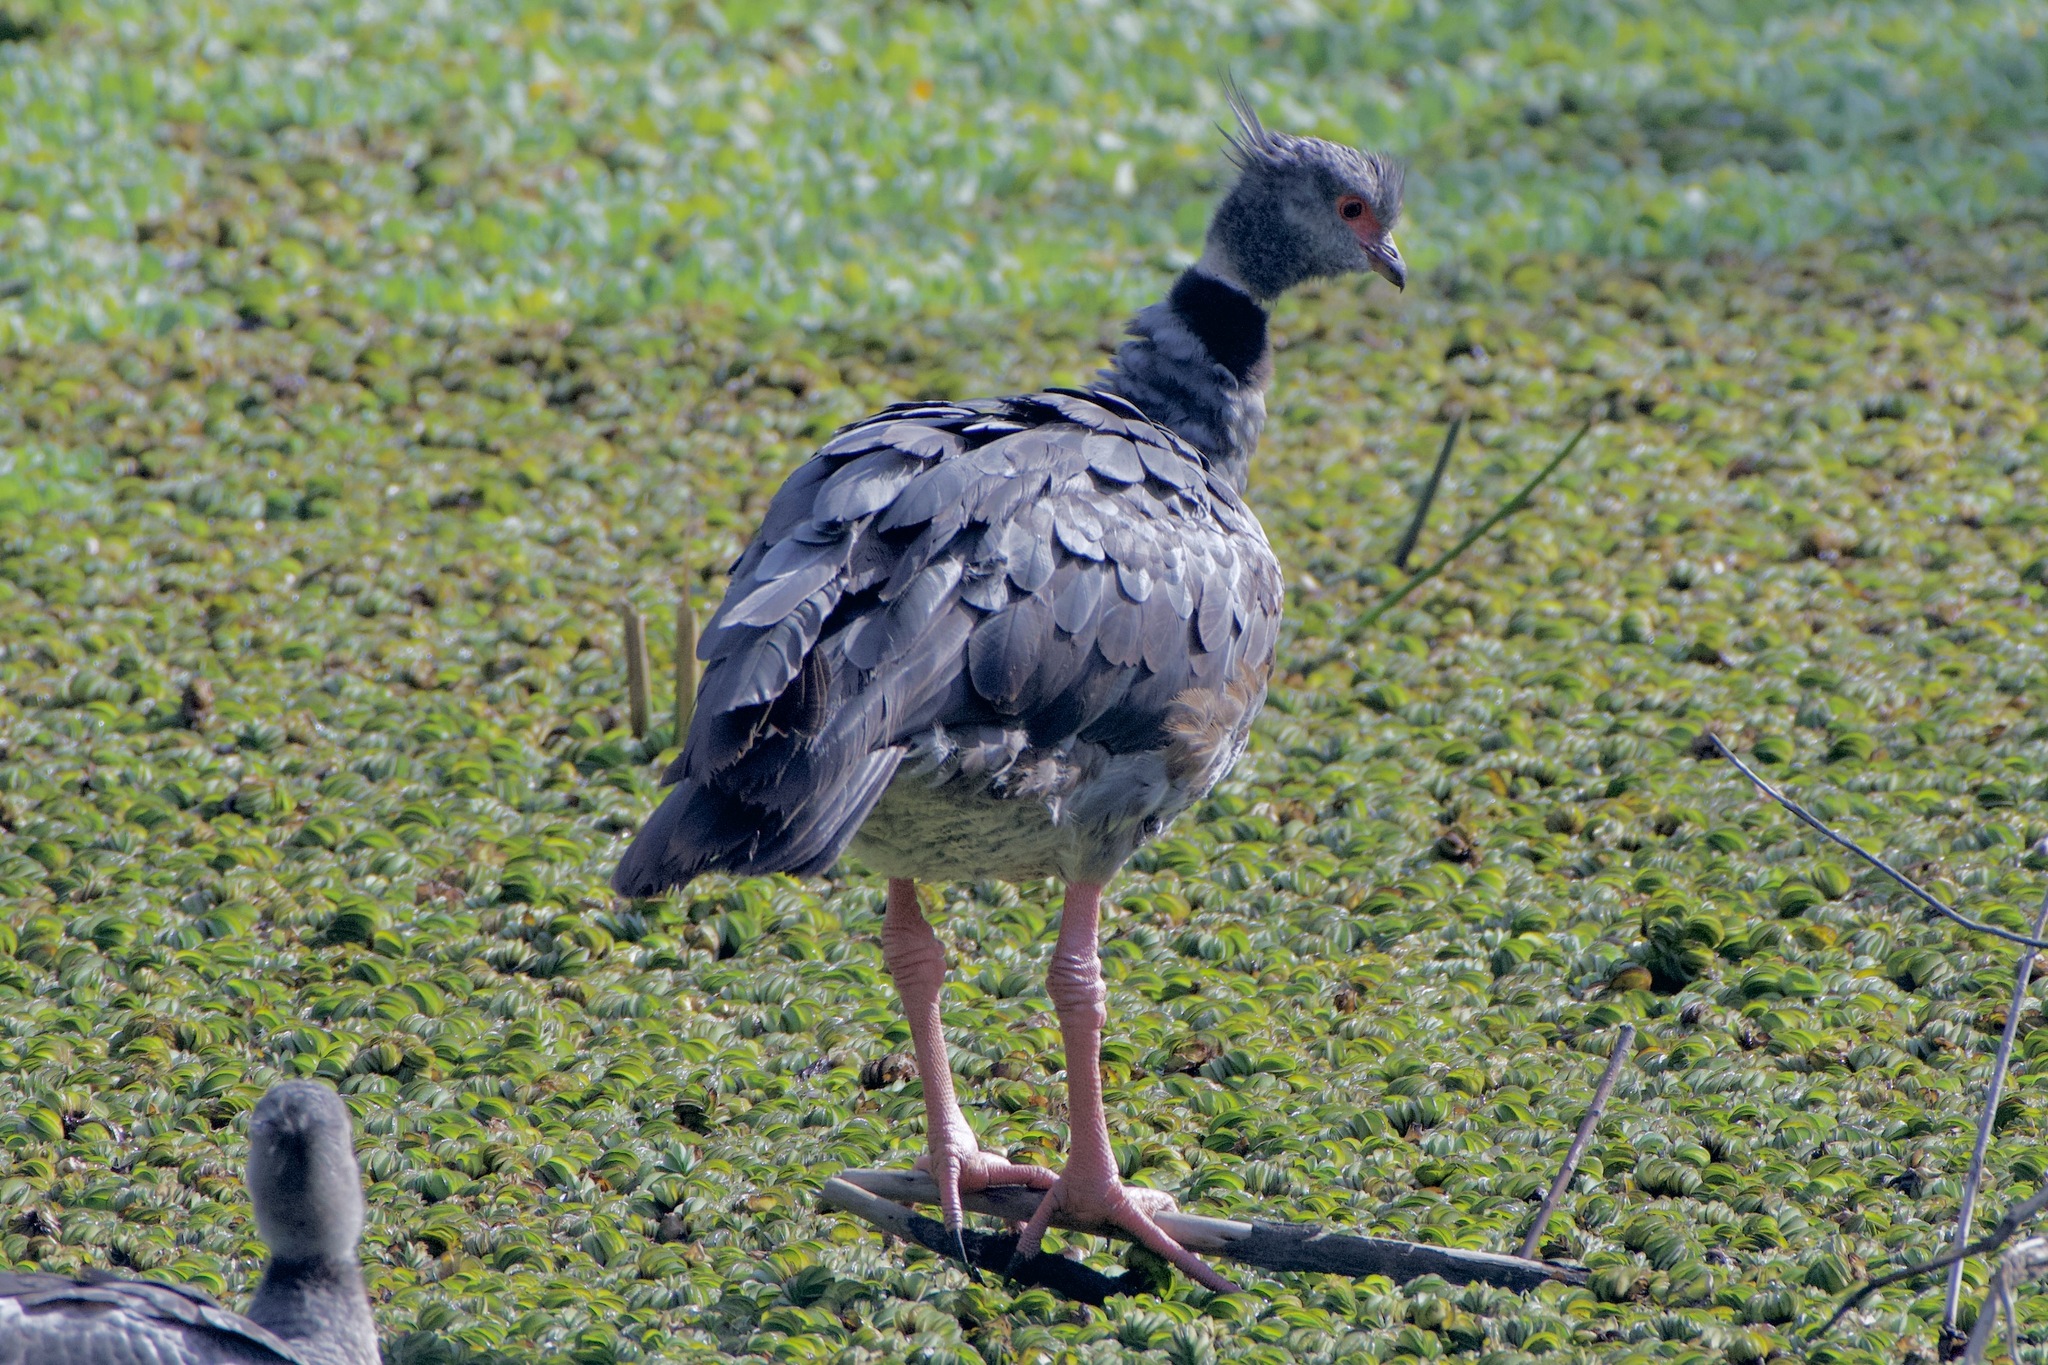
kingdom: Animalia
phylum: Chordata
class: Aves
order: Anseriformes
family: Anhimidae
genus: Chauna
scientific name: Chauna torquata
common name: Southern screamer
